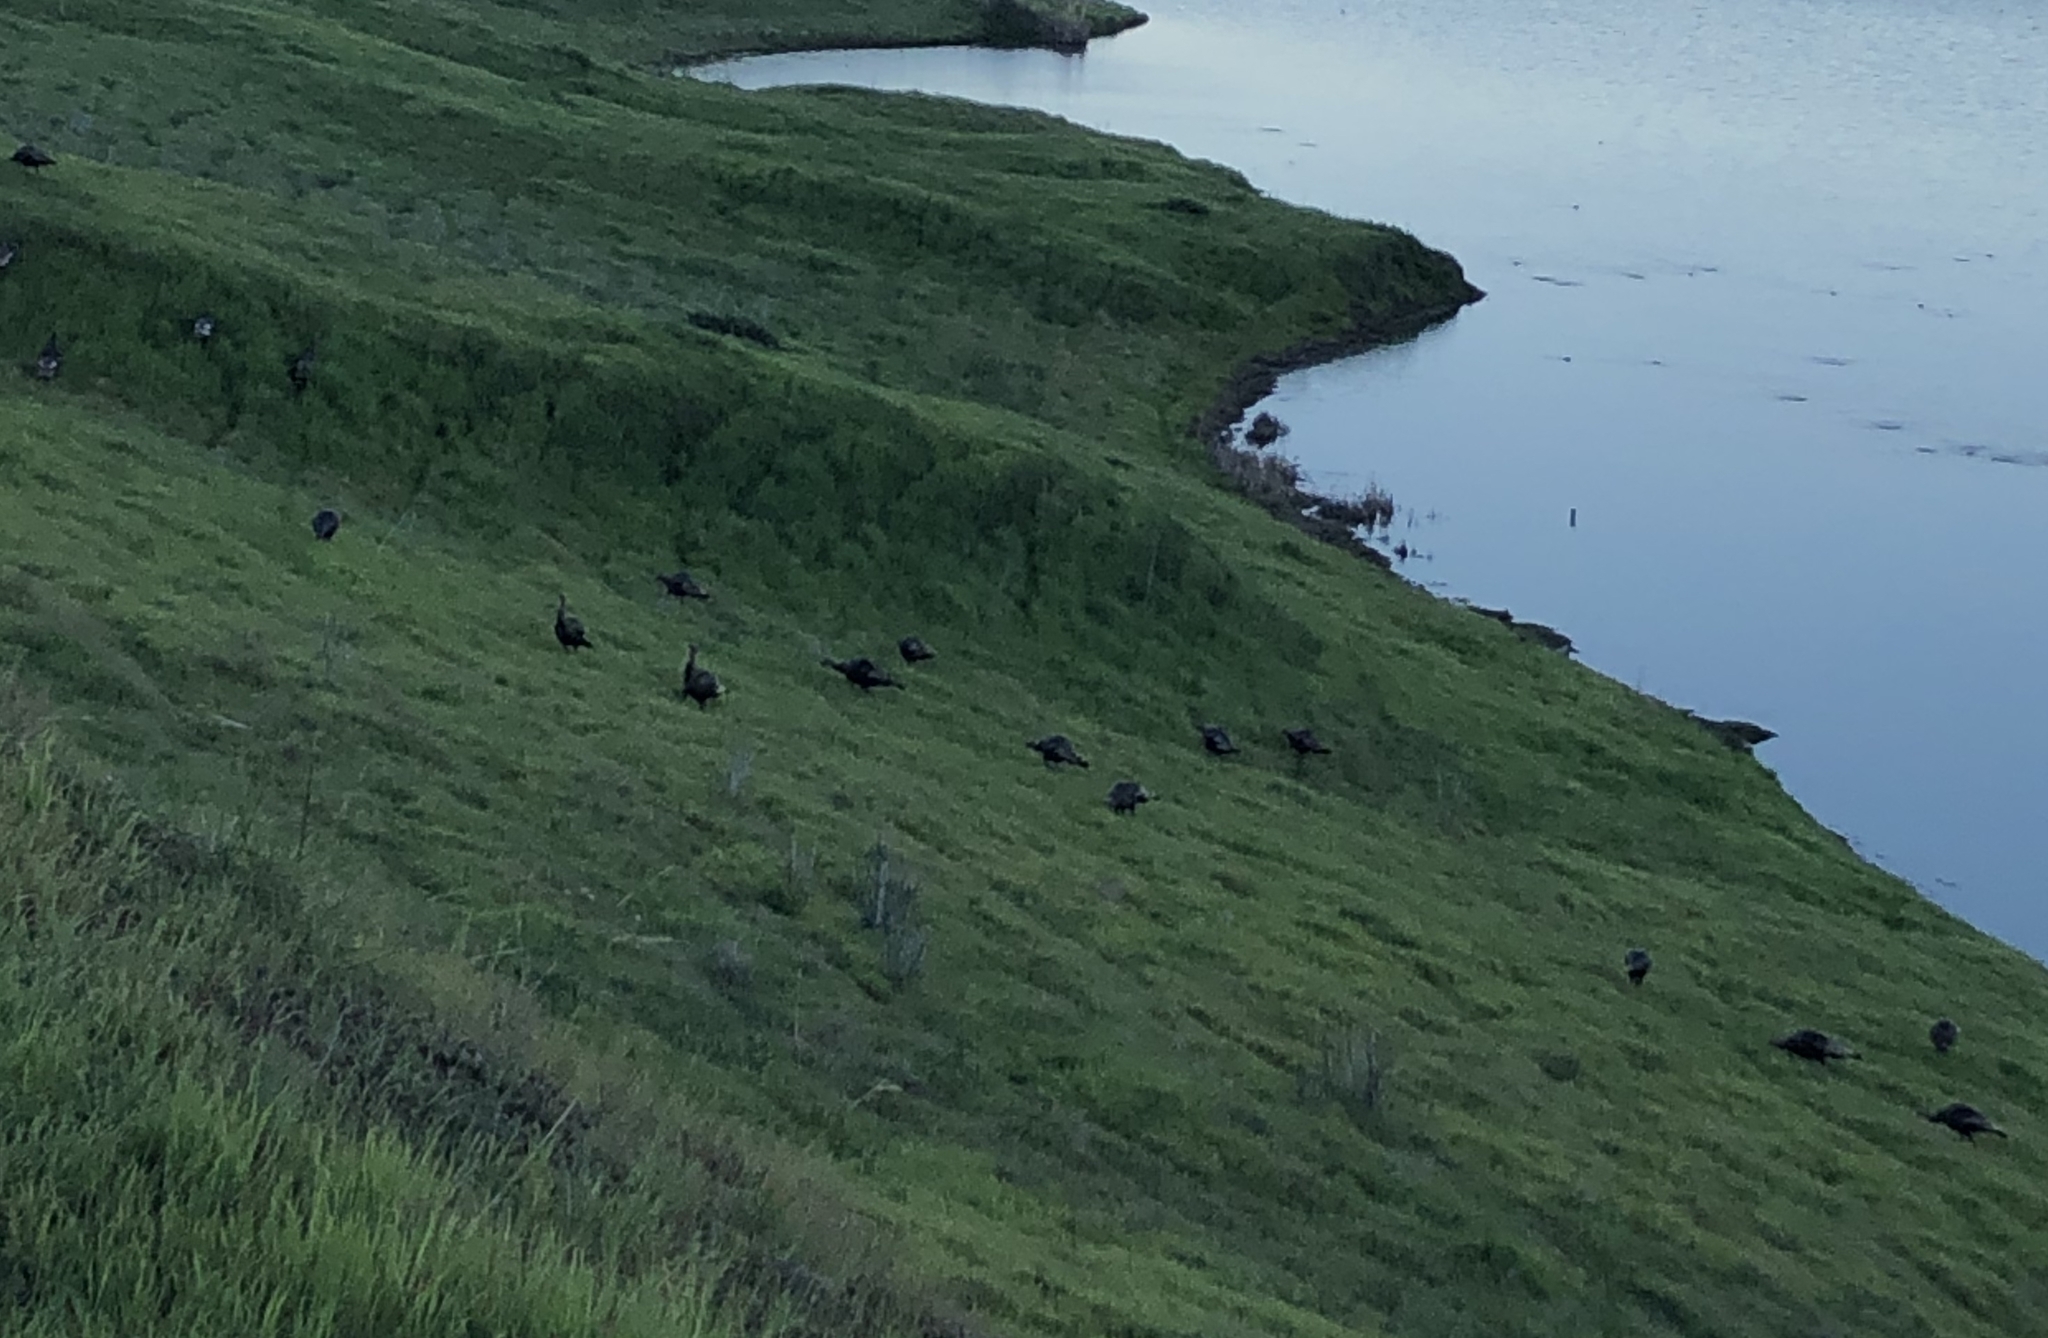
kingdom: Animalia
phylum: Chordata
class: Aves
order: Galliformes
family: Phasianidae
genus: Meleagris
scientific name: Meleagris gallopavo
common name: Wild turkey
